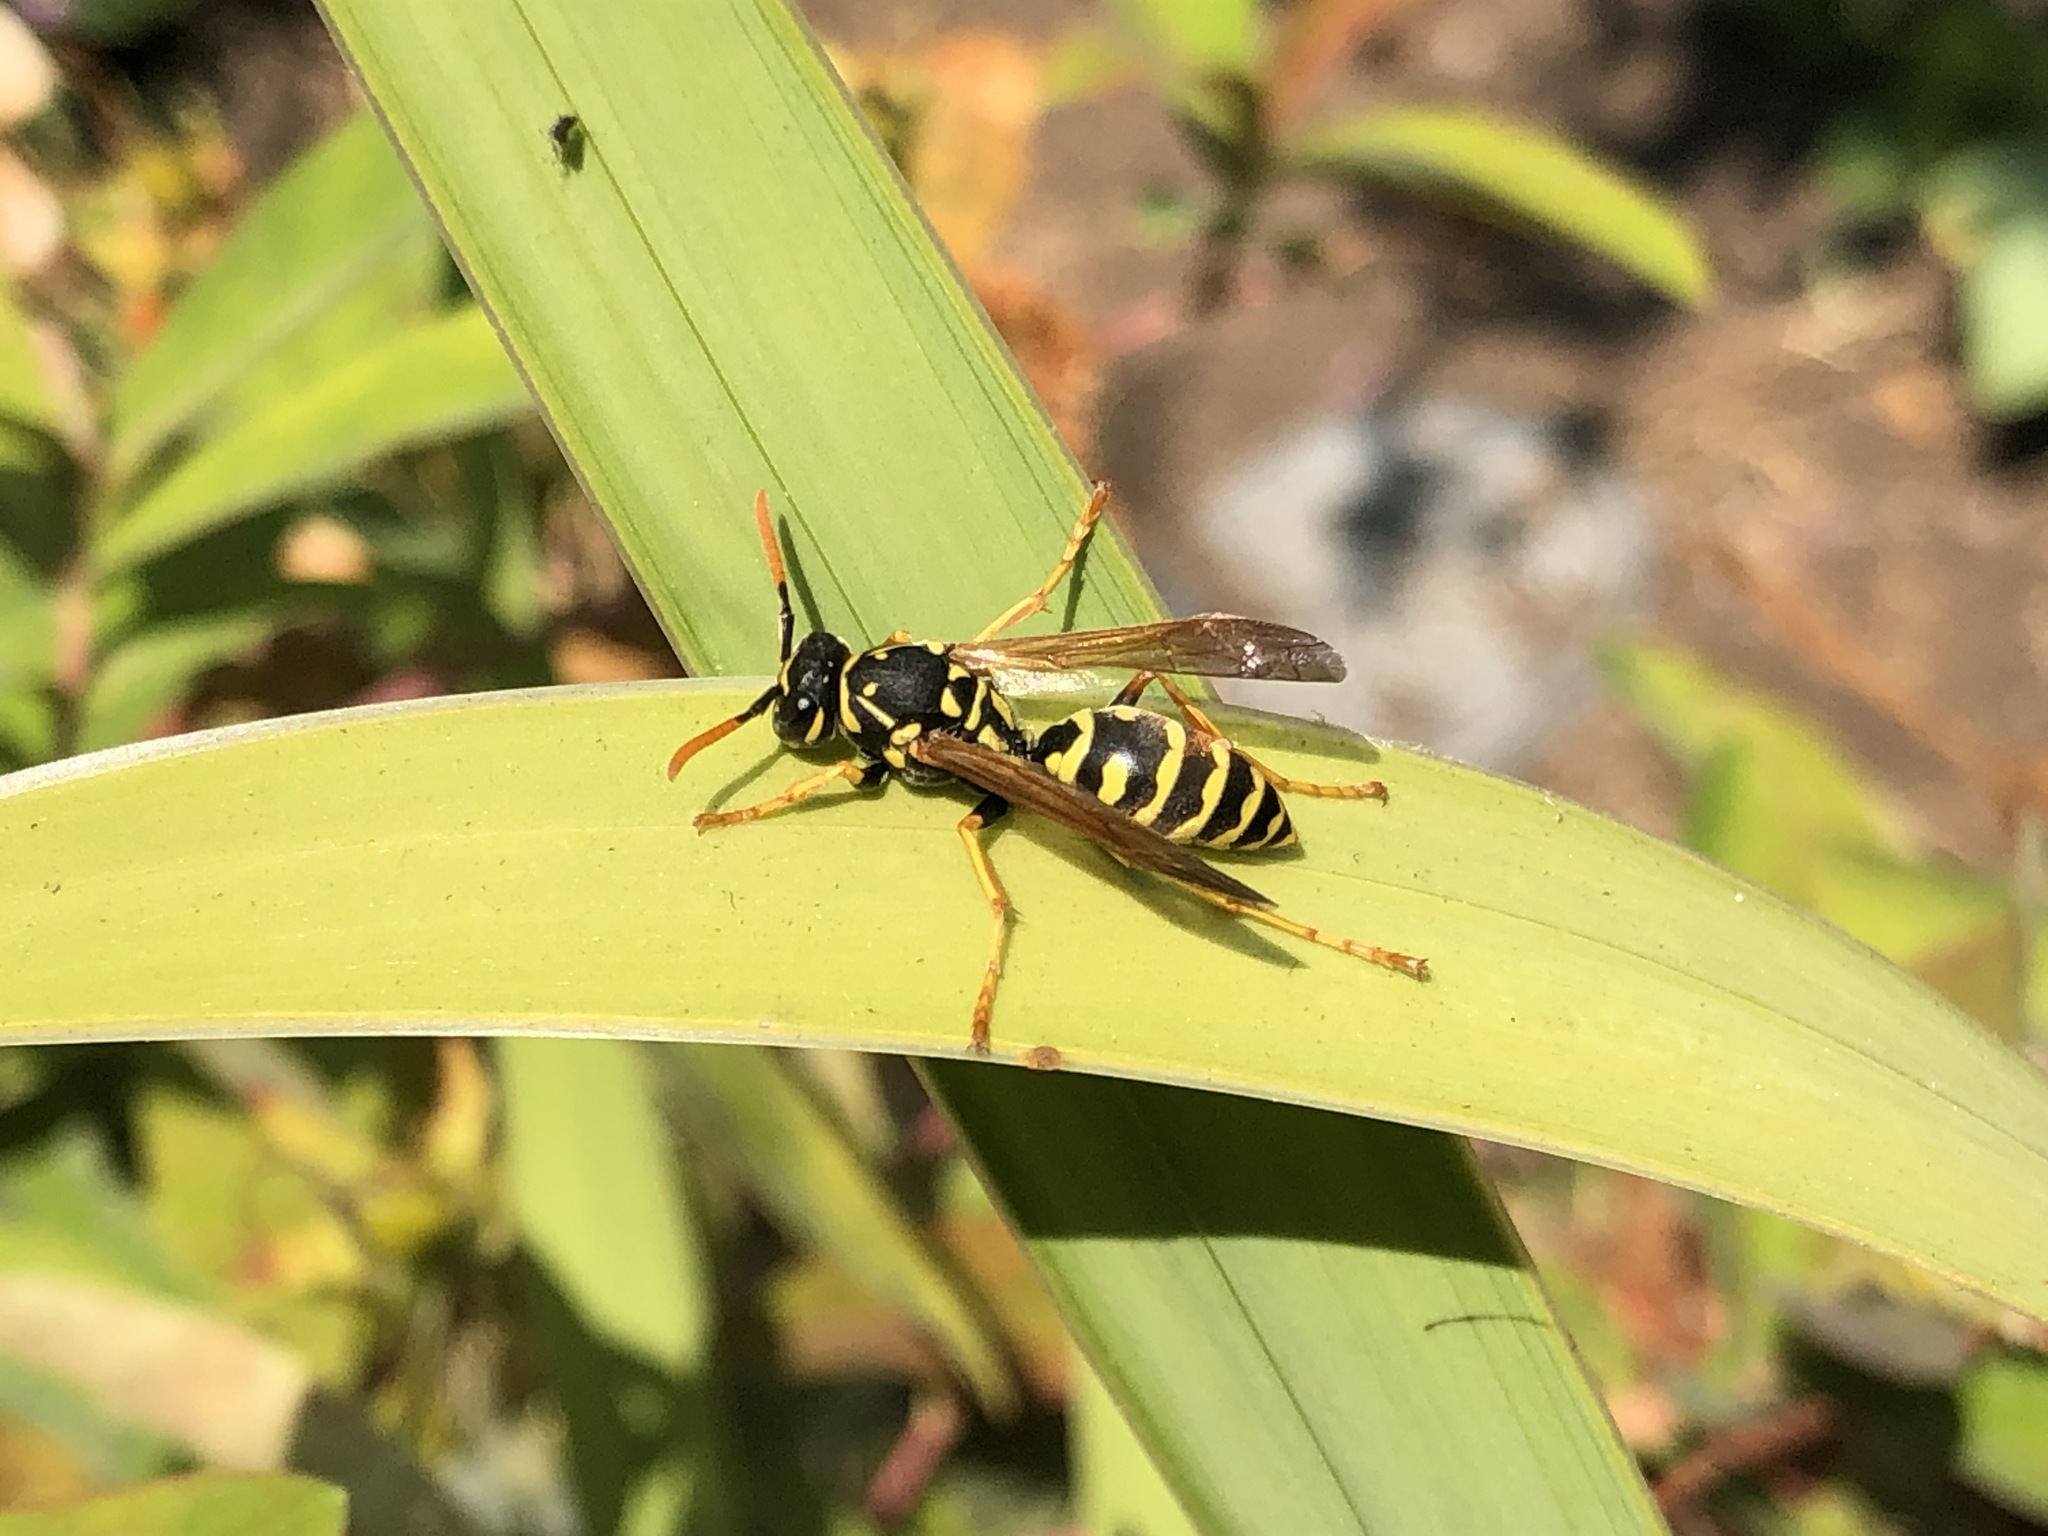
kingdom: Animalia
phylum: Arthropoda
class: Insecta
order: Hymenoptera
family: Eumenidae
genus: Polistes
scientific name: Polistes dominula
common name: Paper wasp
